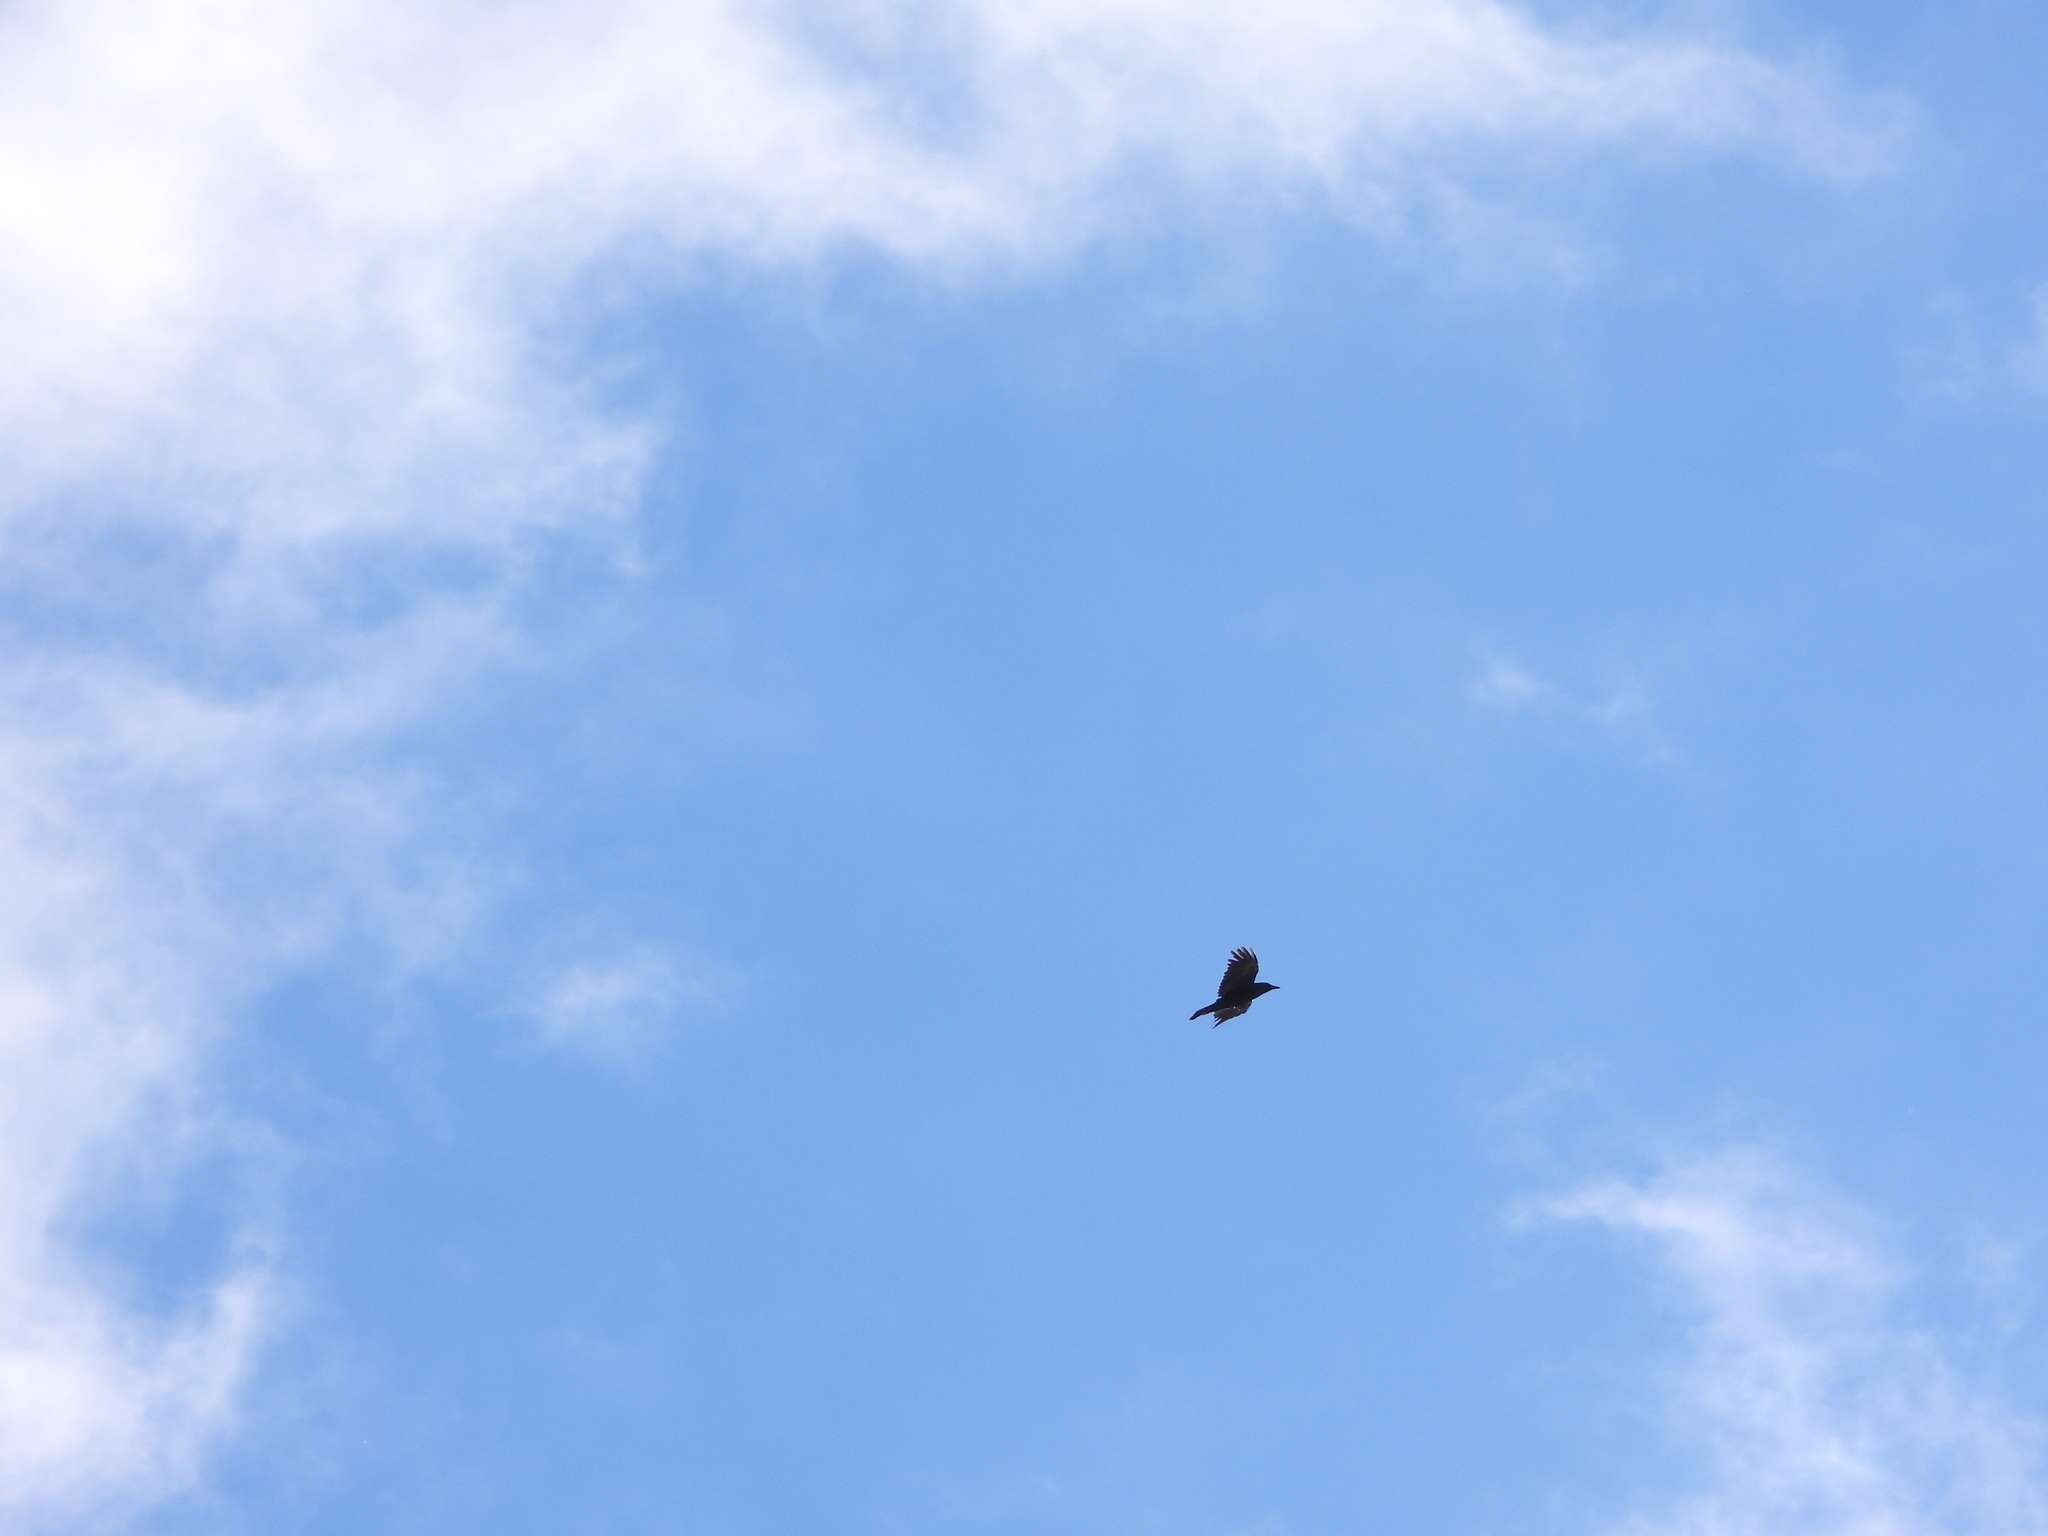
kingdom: Animalia
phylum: Chordata
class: Aves
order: Passeriformes
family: Corvidae
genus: Corvus
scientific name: Corvus corax
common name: Common raven
